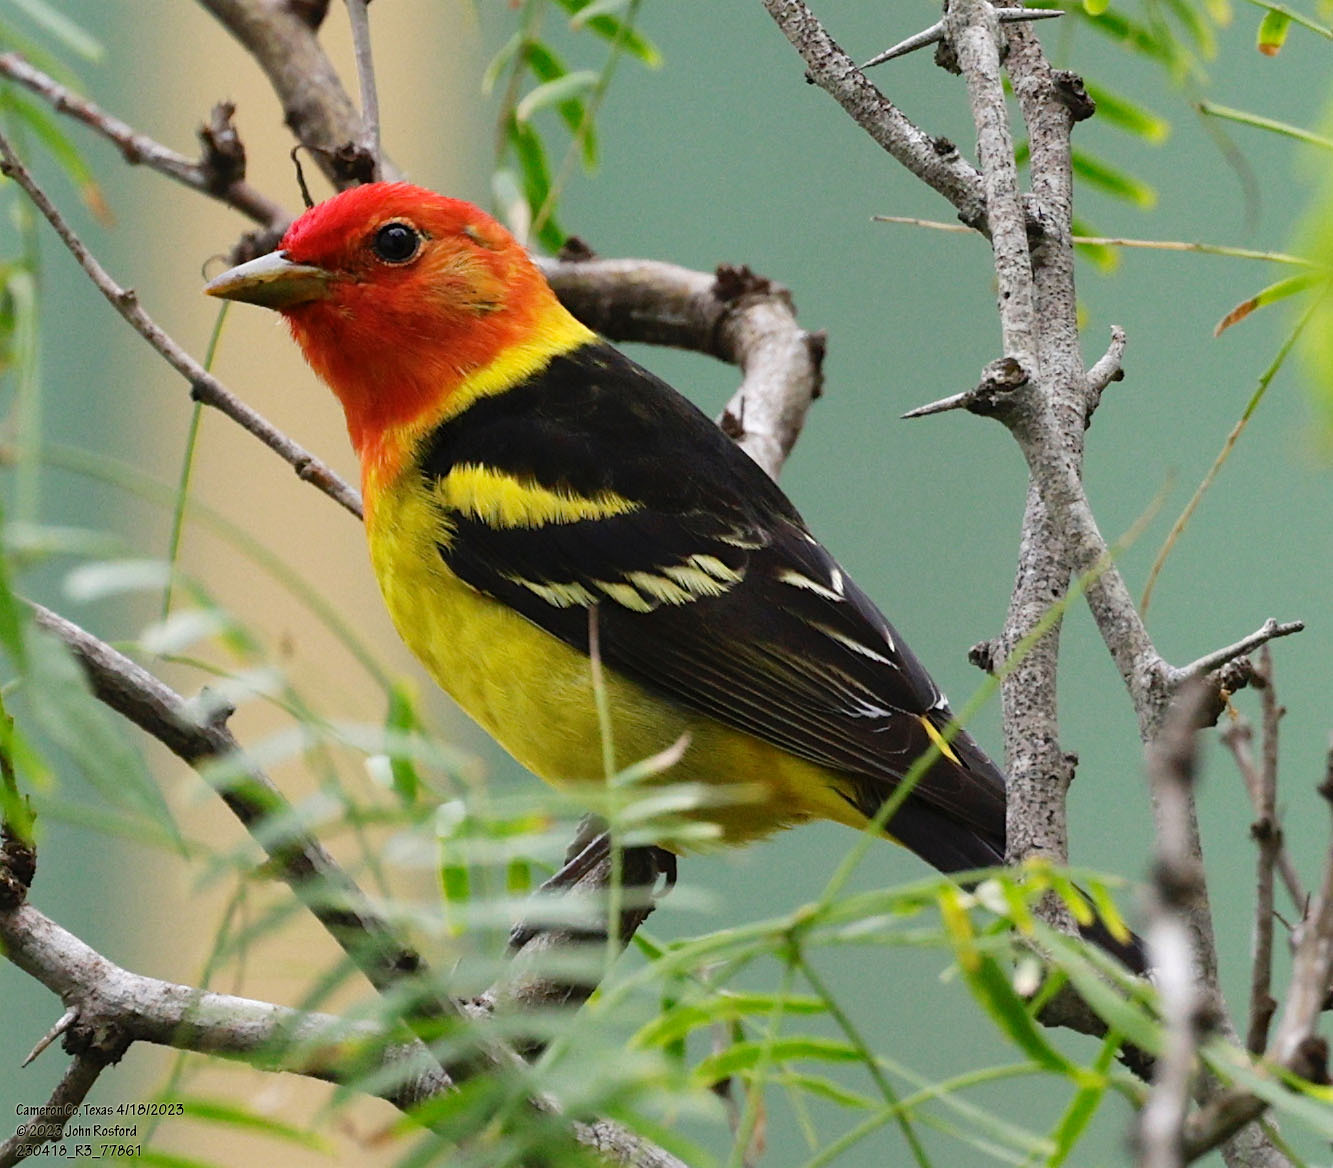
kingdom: Animalia
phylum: Chordata
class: Aves
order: Passeriformes
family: Cardinalidae
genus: Piranga
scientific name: Piranga ludoviciana
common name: Western tanager
